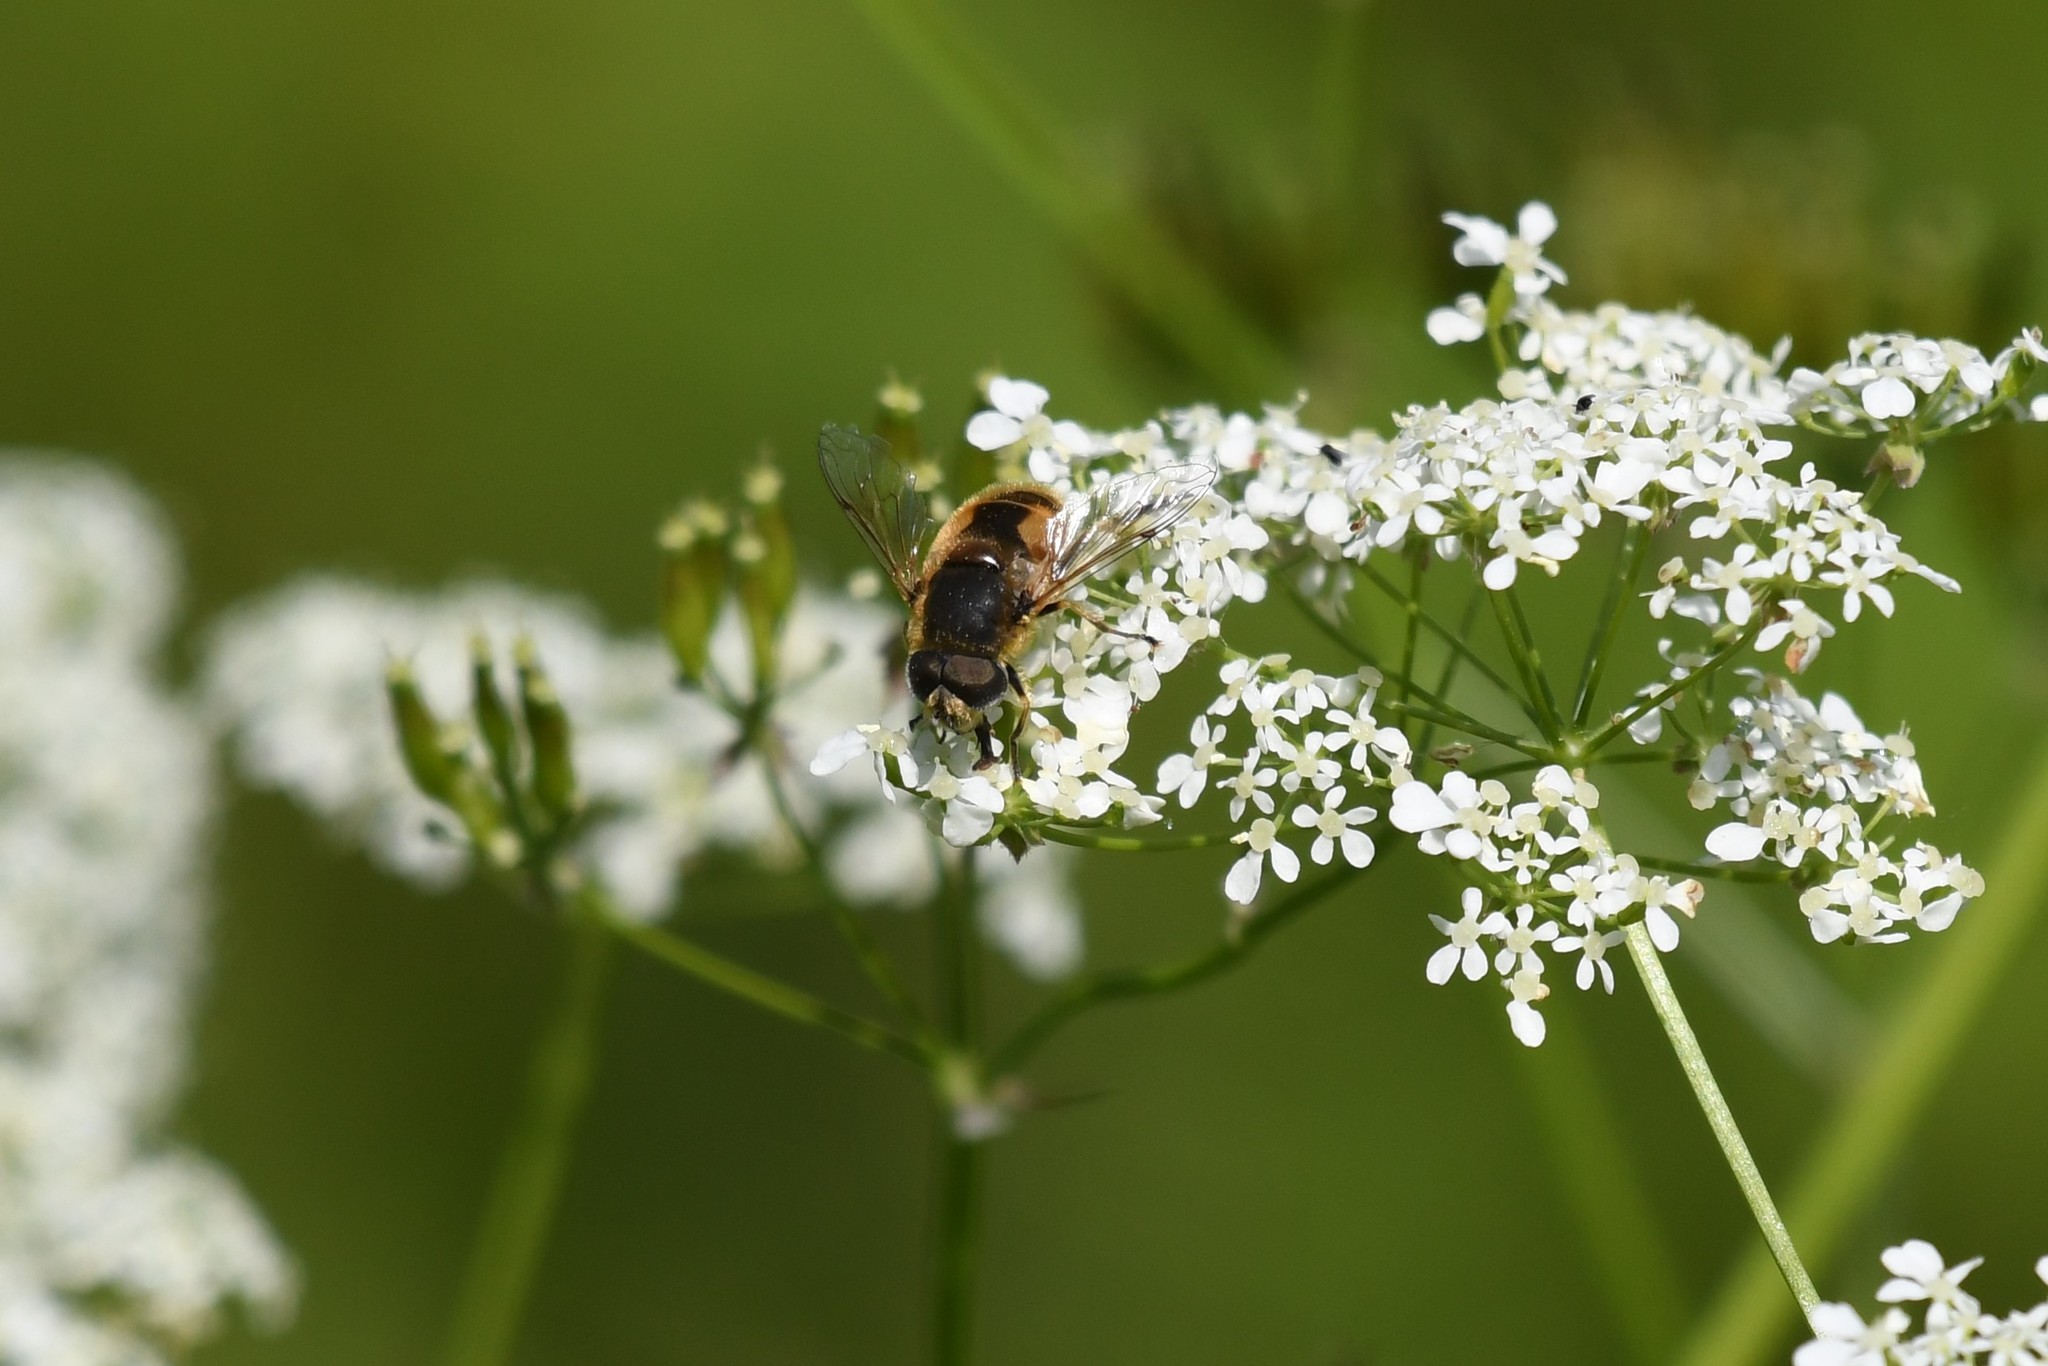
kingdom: Animalia
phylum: Arthropoda
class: Insecta
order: Diptera
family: Syrphidae
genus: Eristalis
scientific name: Eristalis arbustorum
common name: Hover fly
